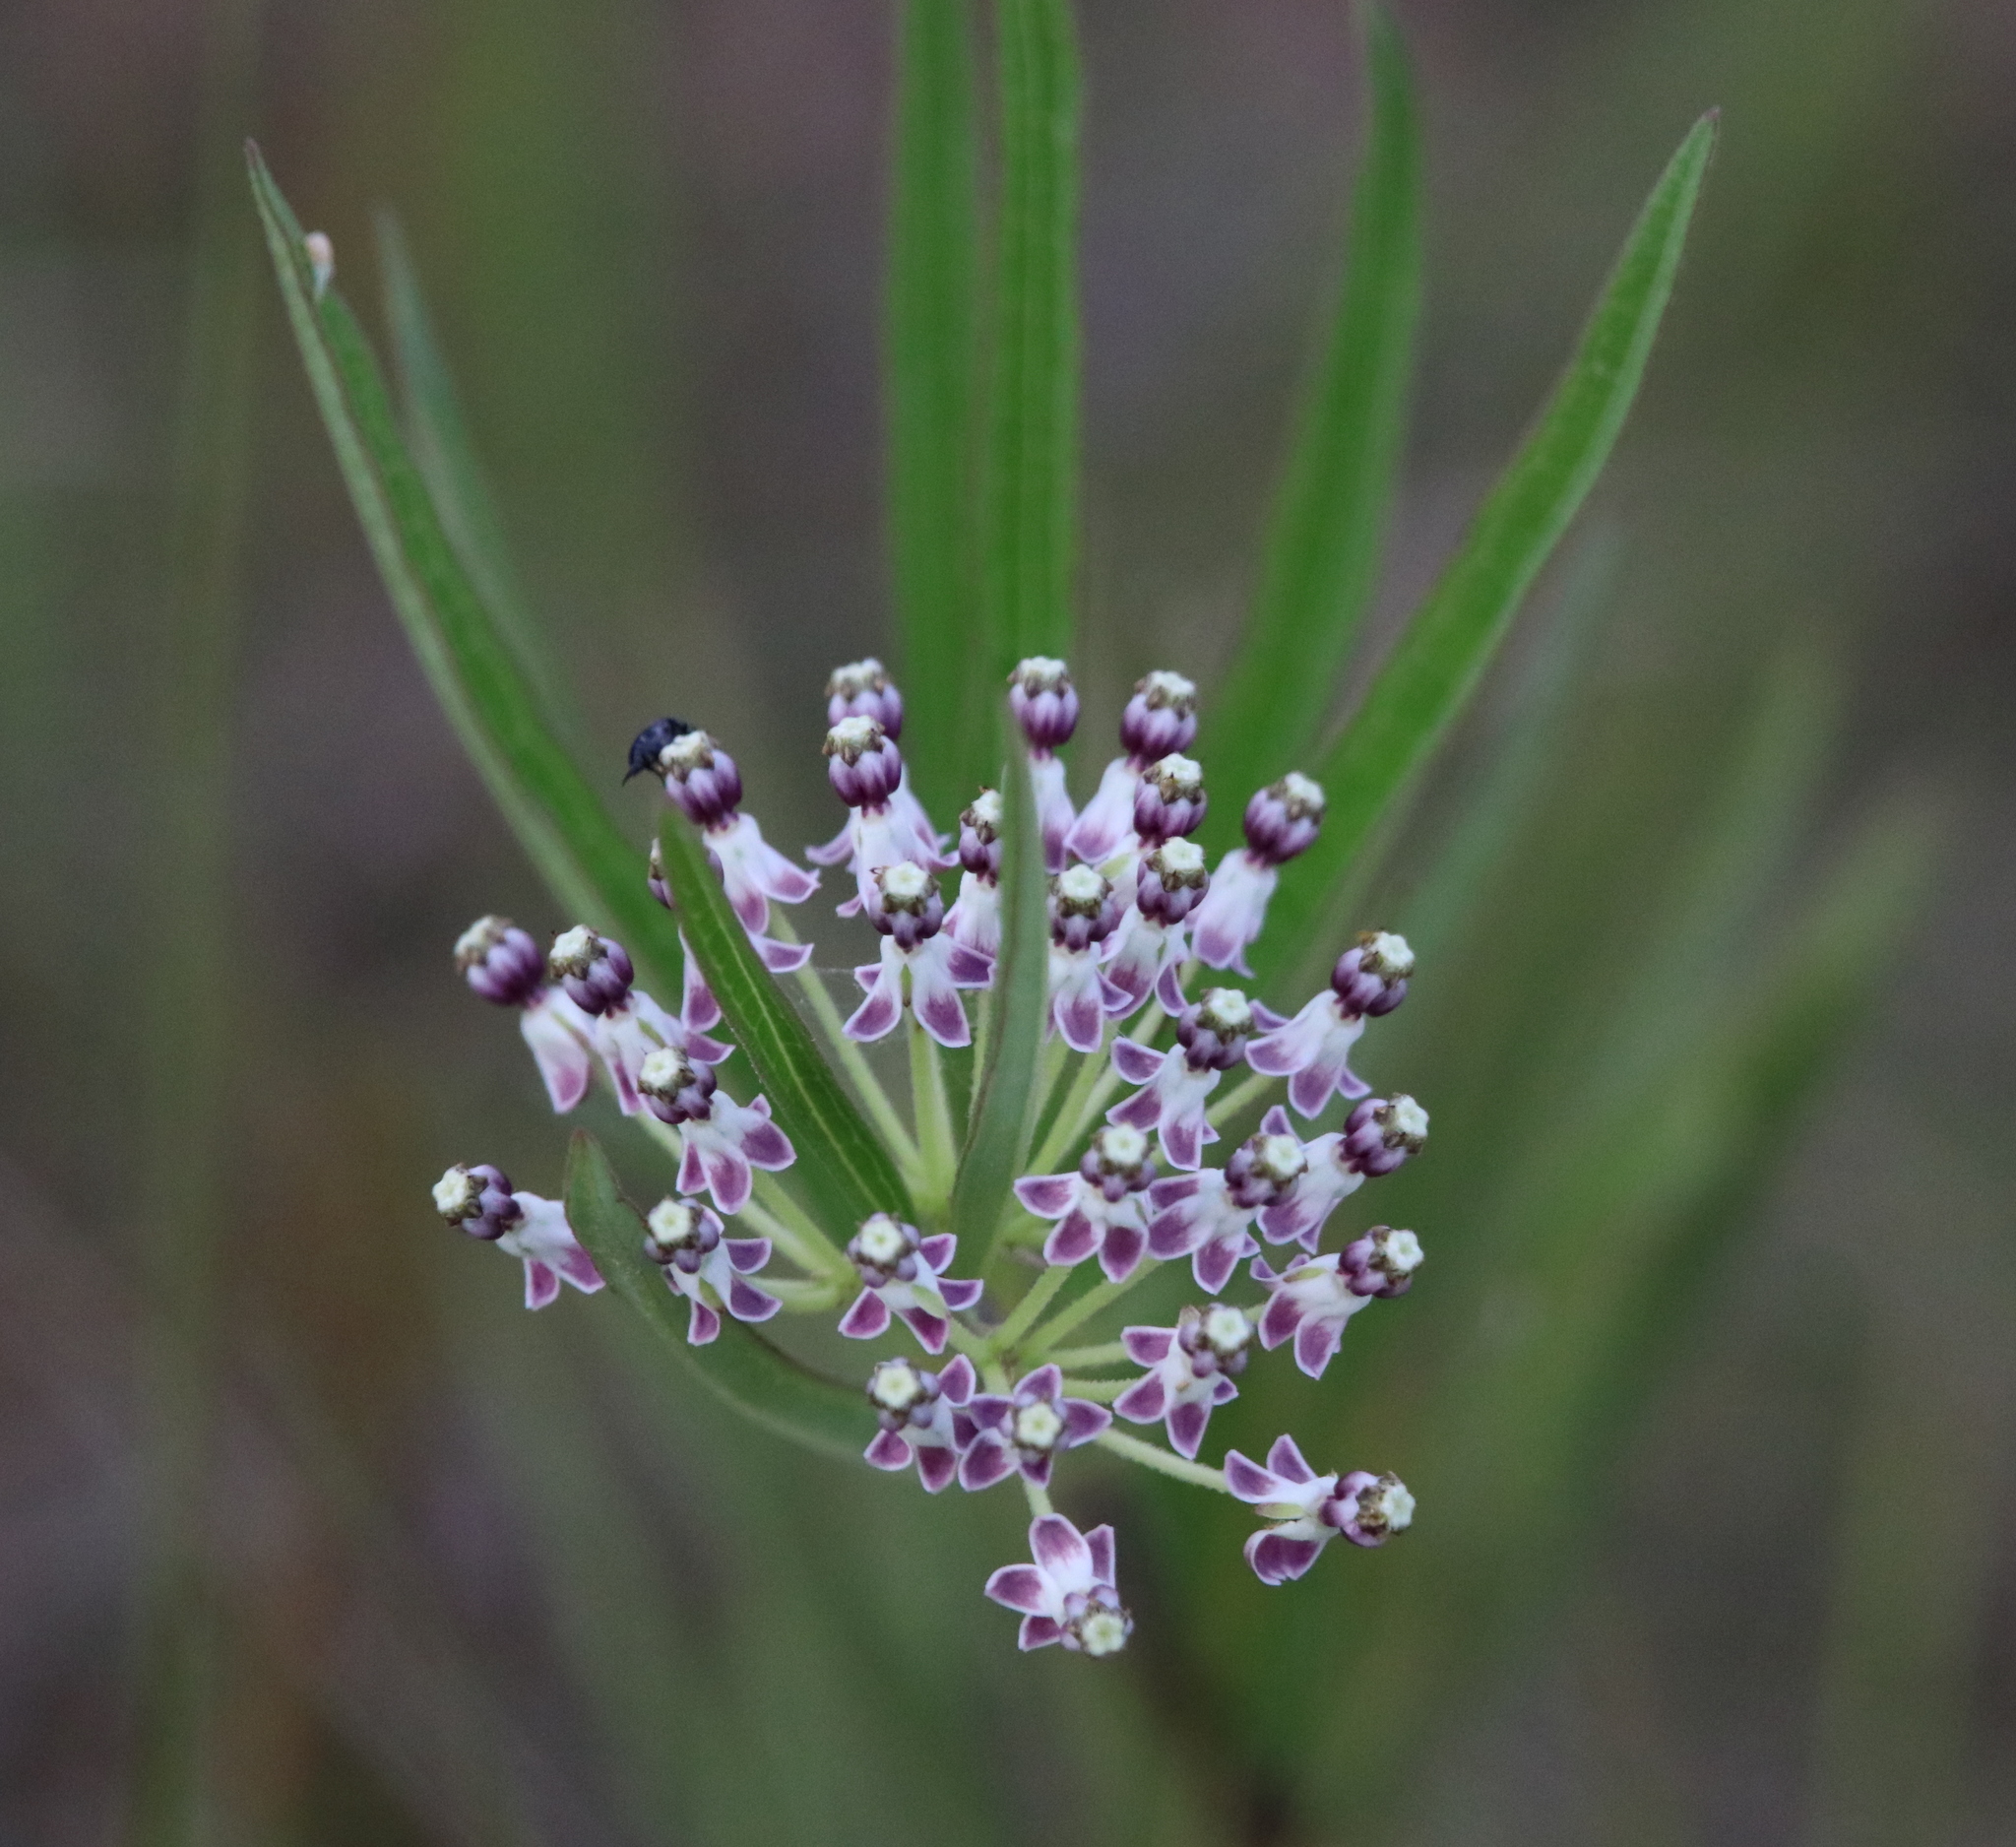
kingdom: Plantae
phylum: Tracheophyta
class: Magnoliopsida
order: Gentianales
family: Apocynaceae
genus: Asclepias
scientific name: Asclepias longifolia
